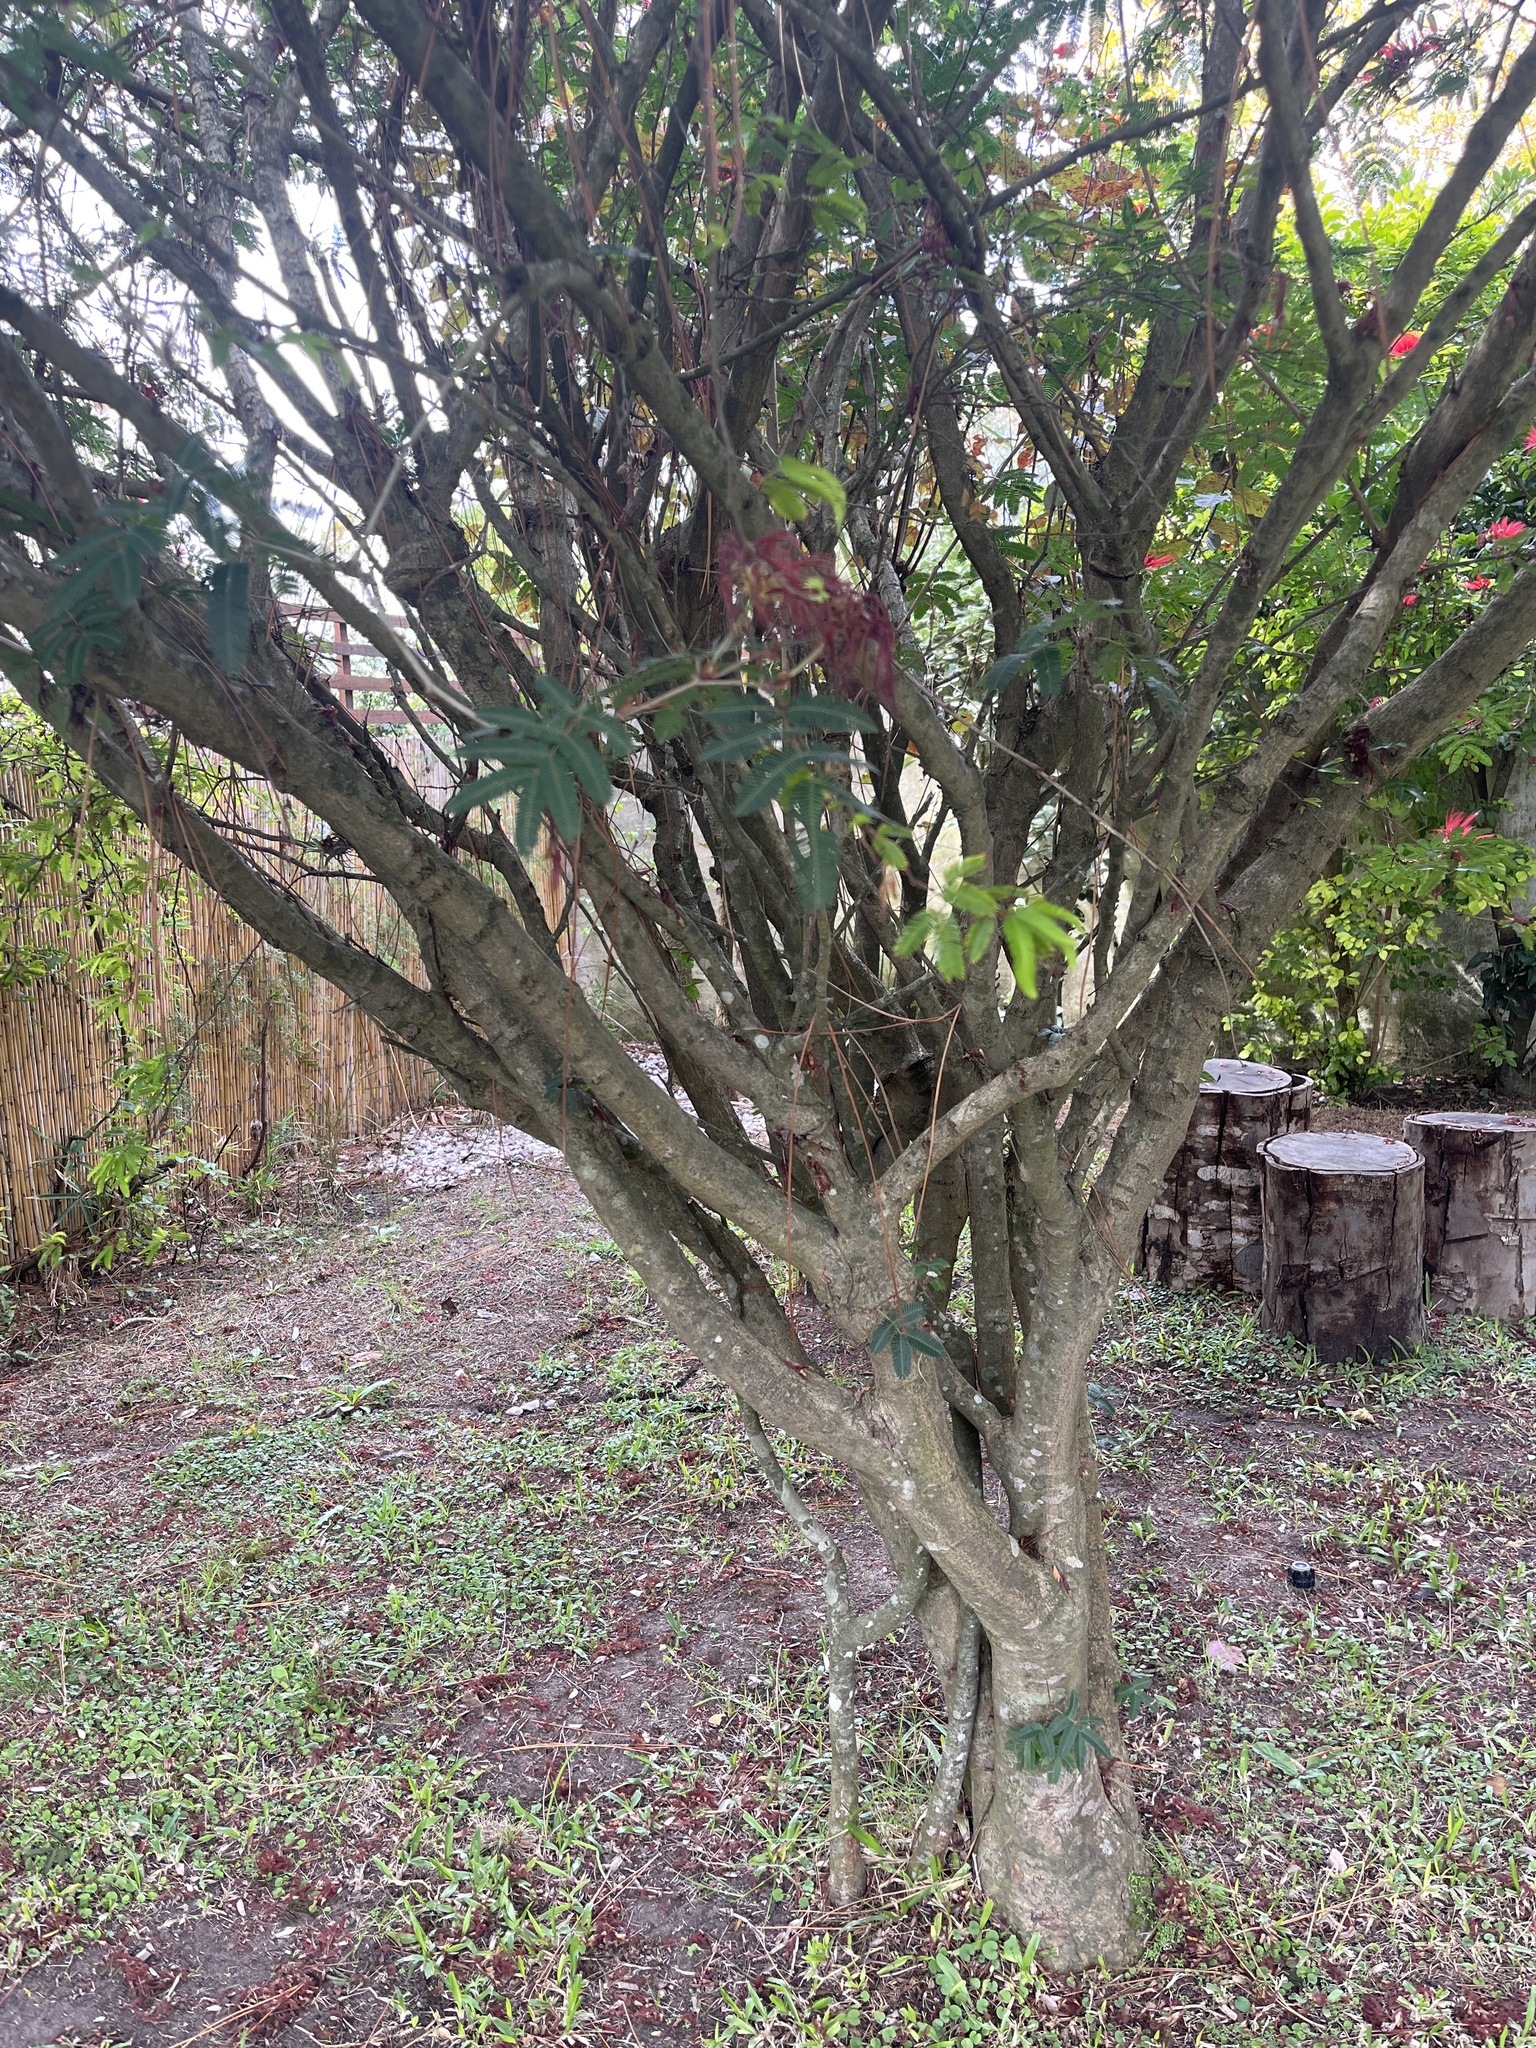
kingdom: Plantae
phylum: Tracheophyta
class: Magnoliopsida
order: Fabales
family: Fabaceae
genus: Calliandra
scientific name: Calliandra tweediei
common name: Mexican flamebush
